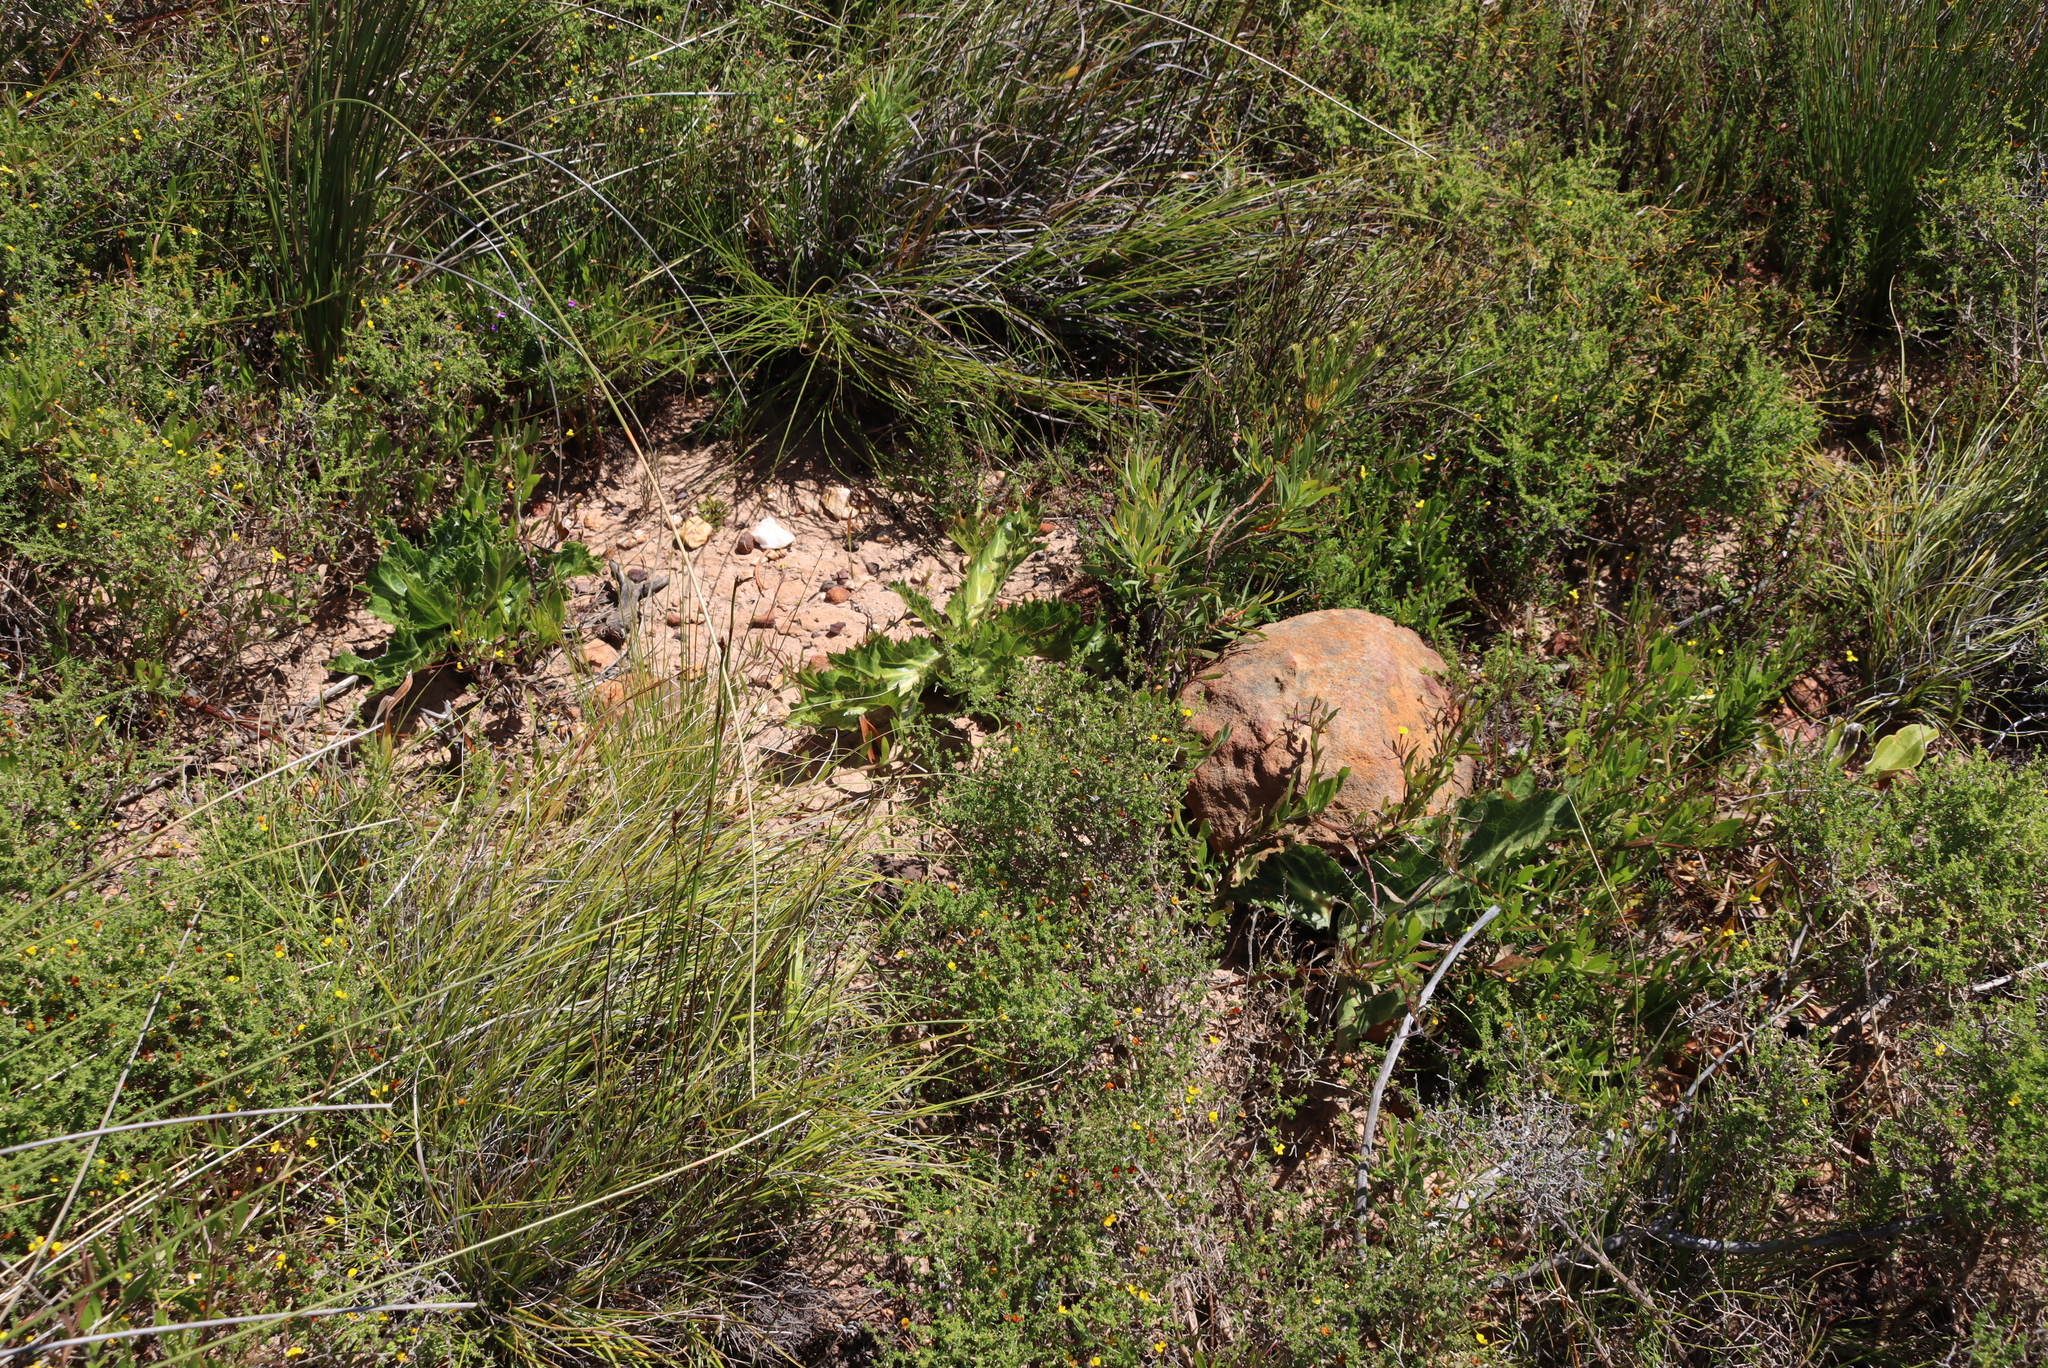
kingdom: Plantae
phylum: Tracheophyta
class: Magnoliopsida
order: Apiales
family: Apiaceae
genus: Lichtensteinia
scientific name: Lichtensteinia lacera
